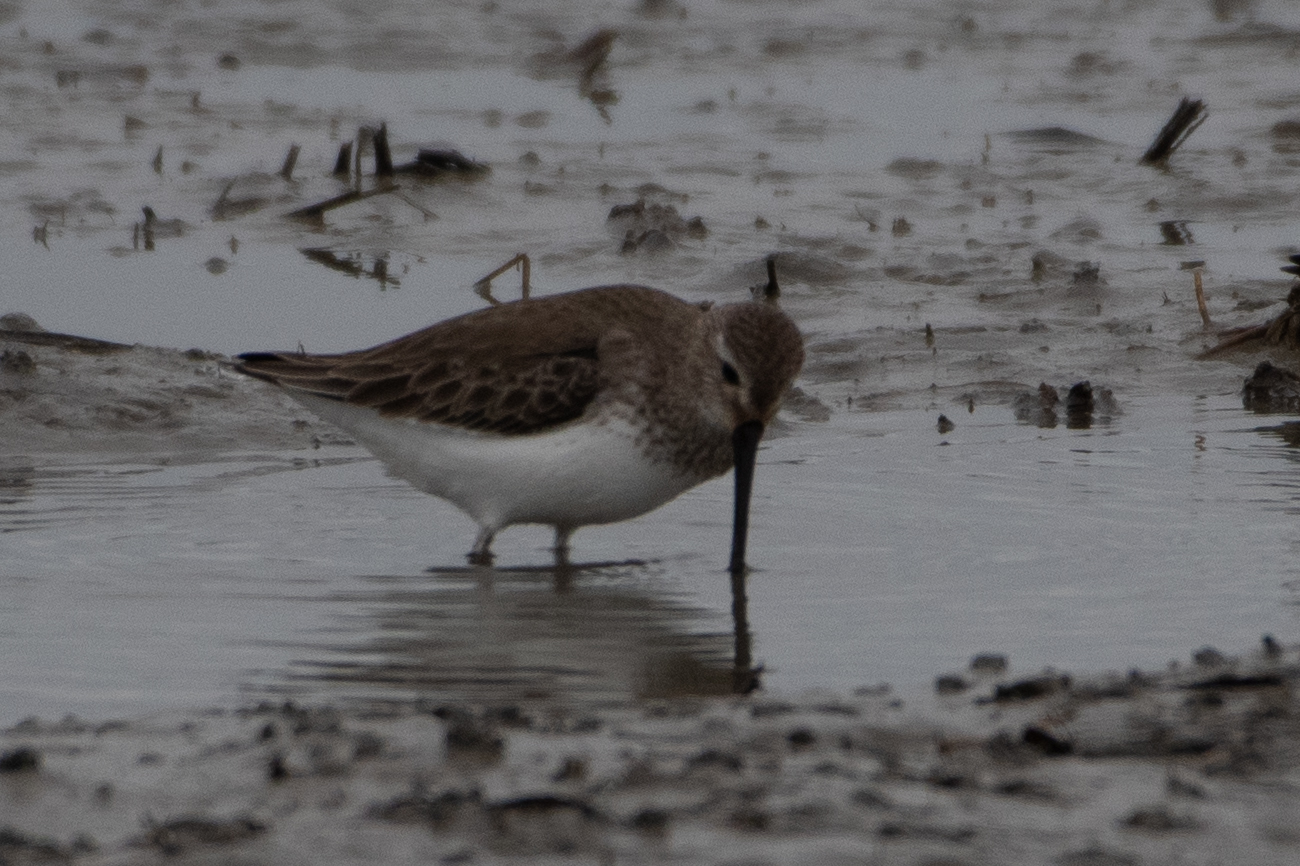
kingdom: Animalia
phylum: Chordata
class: Aves
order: Charadriiformes
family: Scolopacidae
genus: Calidris
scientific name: Calidris alpina
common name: Dunlin
